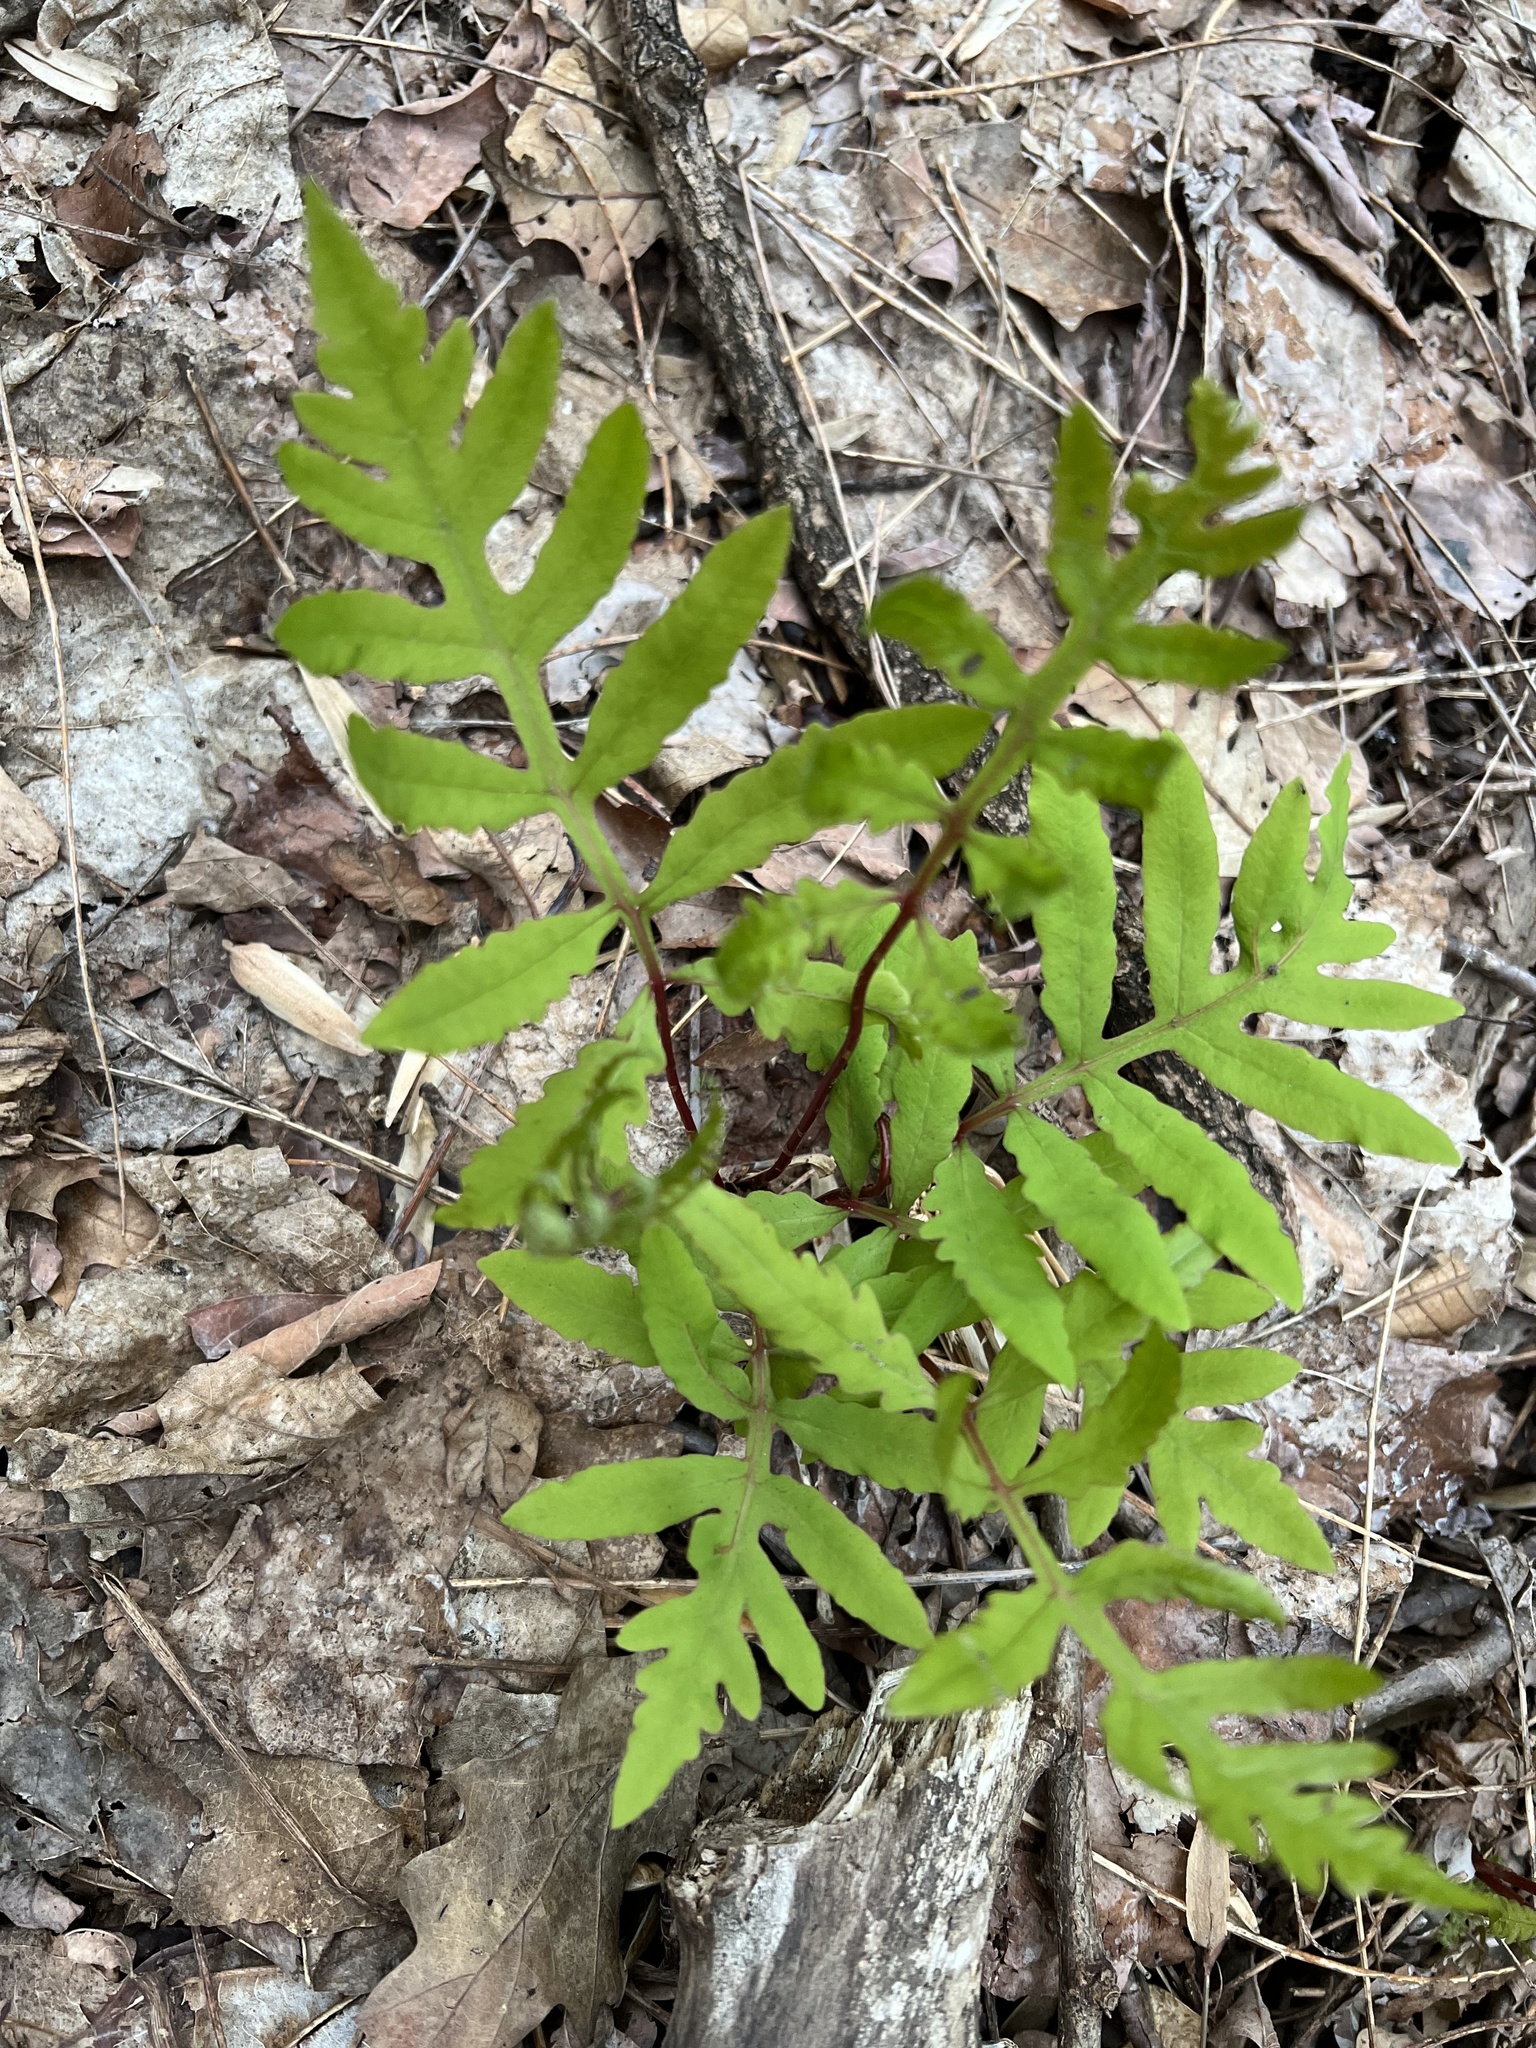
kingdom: Plantae
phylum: Tracheophyta
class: Polypodiopsida
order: Polypodiales
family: Onocleaceae
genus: Onoclea
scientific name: Onoclea sensibilis
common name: Sensitive fern
